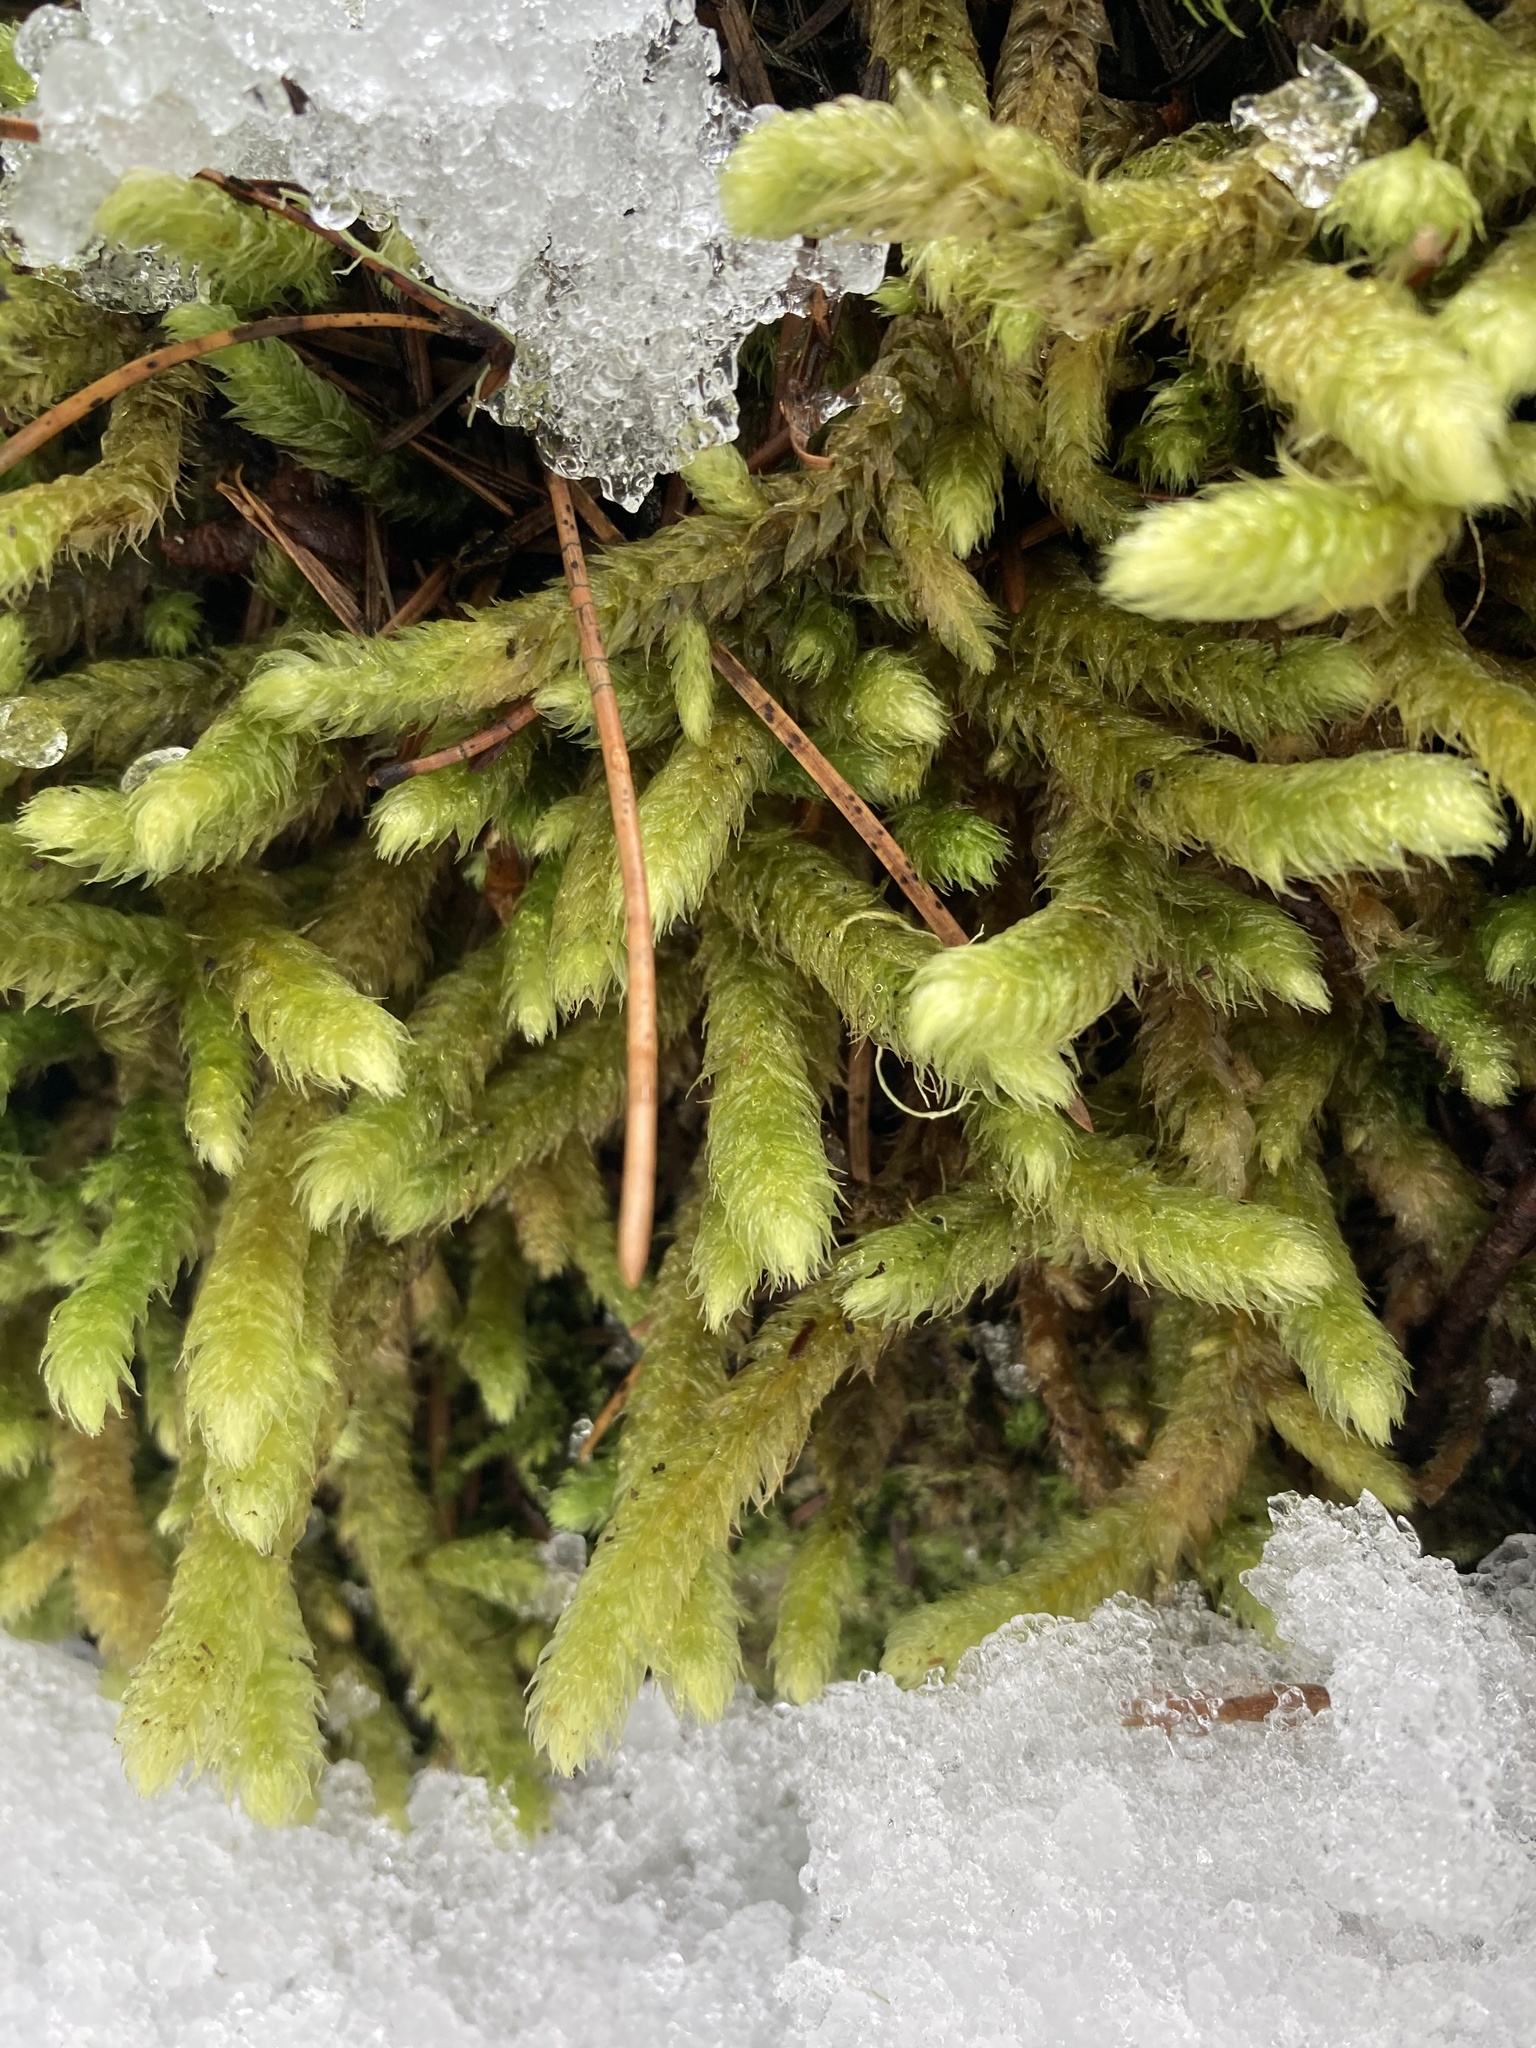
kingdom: Plantae
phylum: Bryophyta
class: Bryopsida
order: Hypnales
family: Hylocomiaceae
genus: Rhytidiopsis
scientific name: Rhytidiopsis robusta
